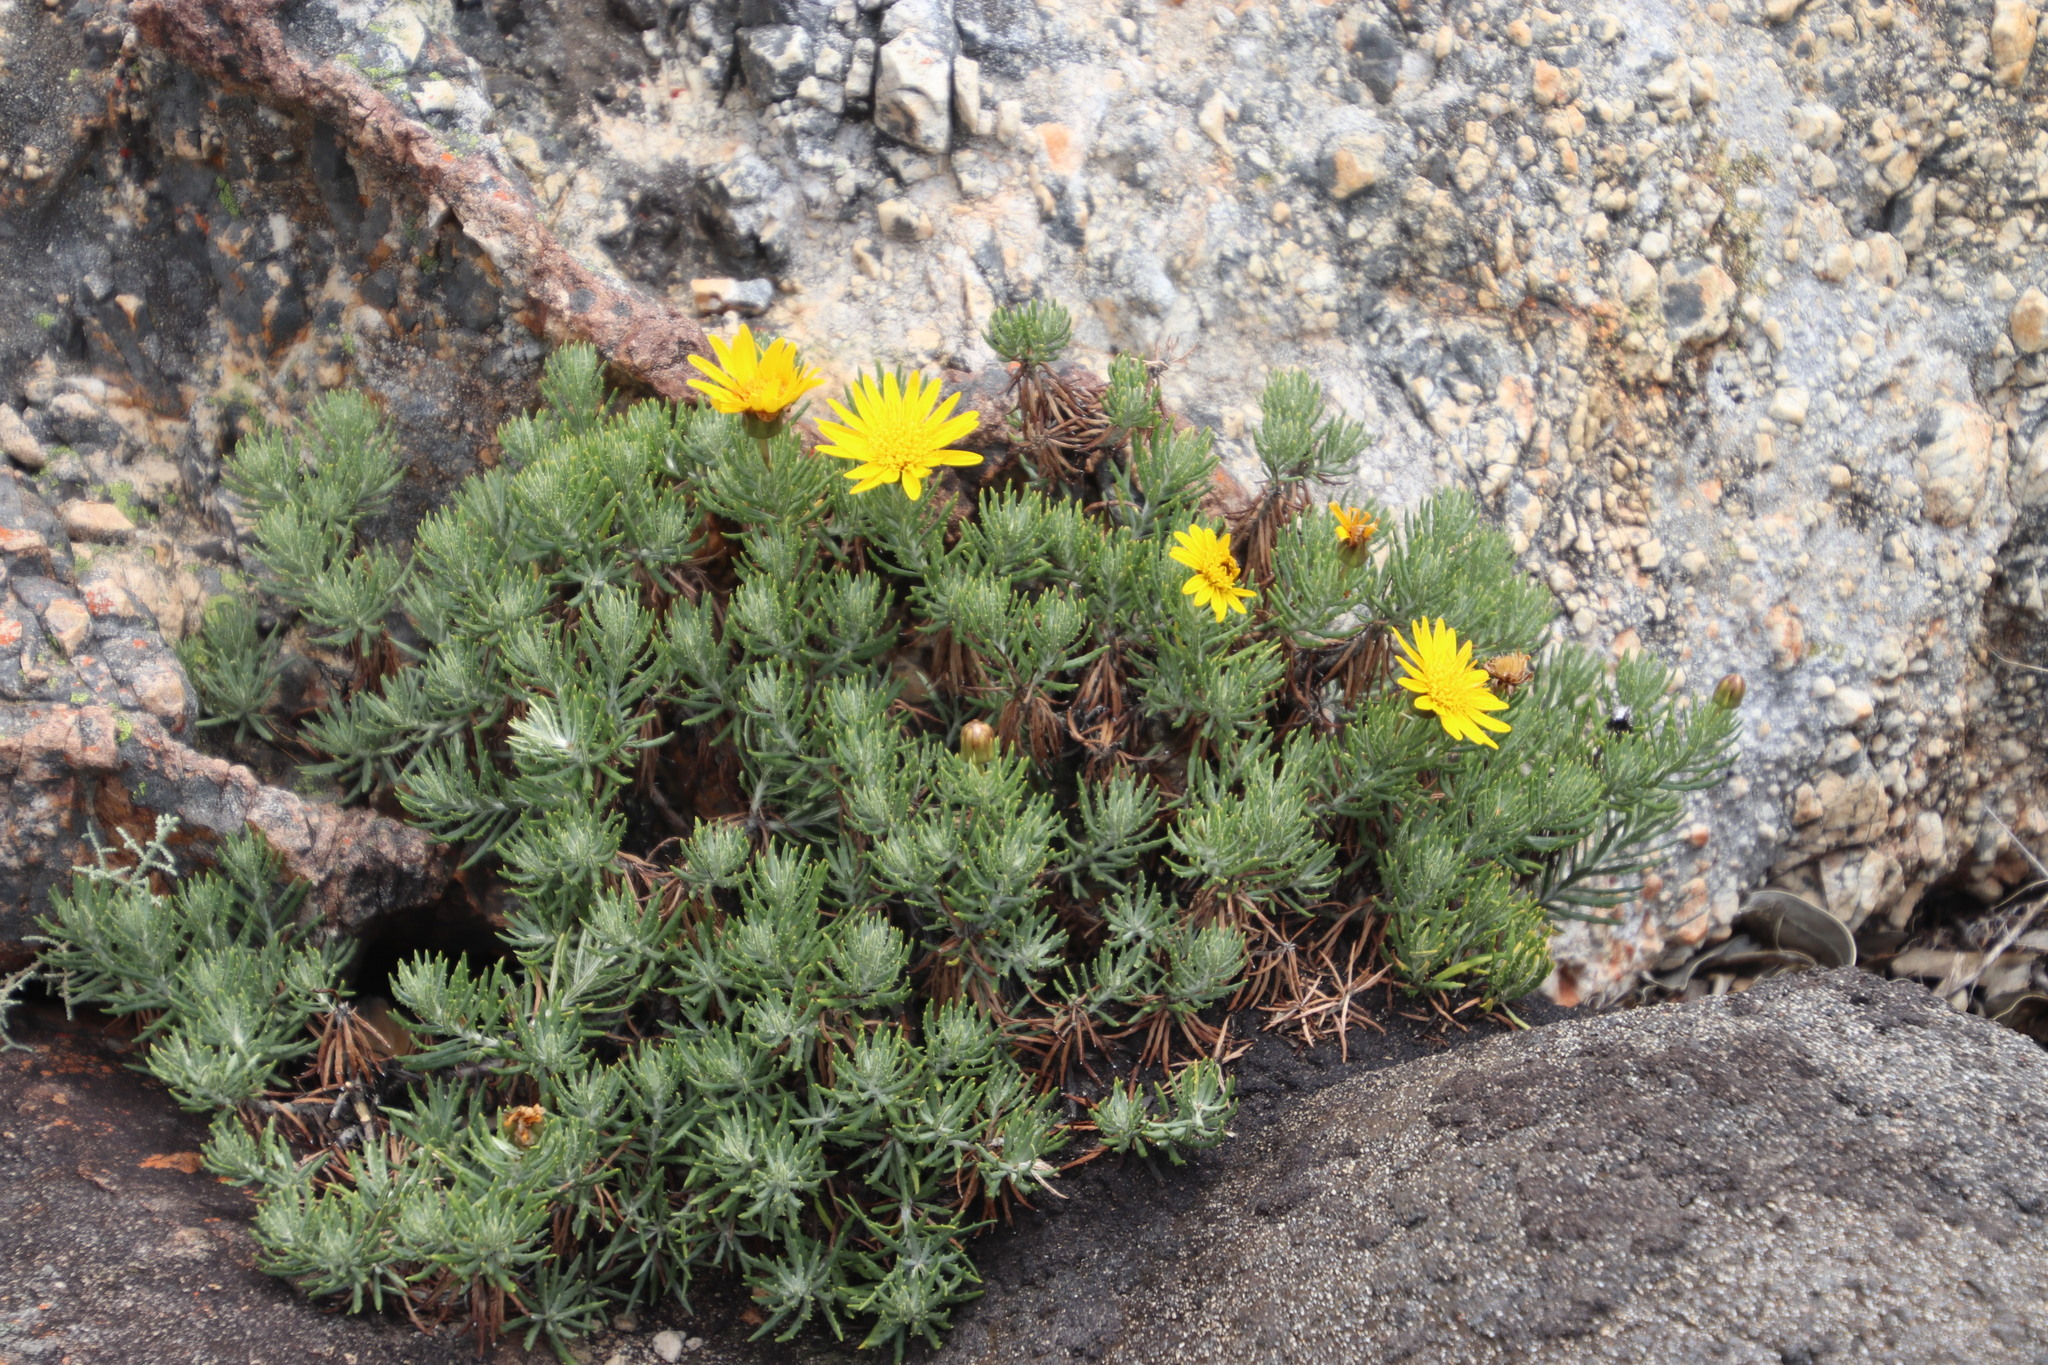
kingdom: Plantae
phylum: Tracheophyta
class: Magnoliopsida
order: Asterales
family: Asteraceae
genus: Heterolepis
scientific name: Heterolepis aliena
